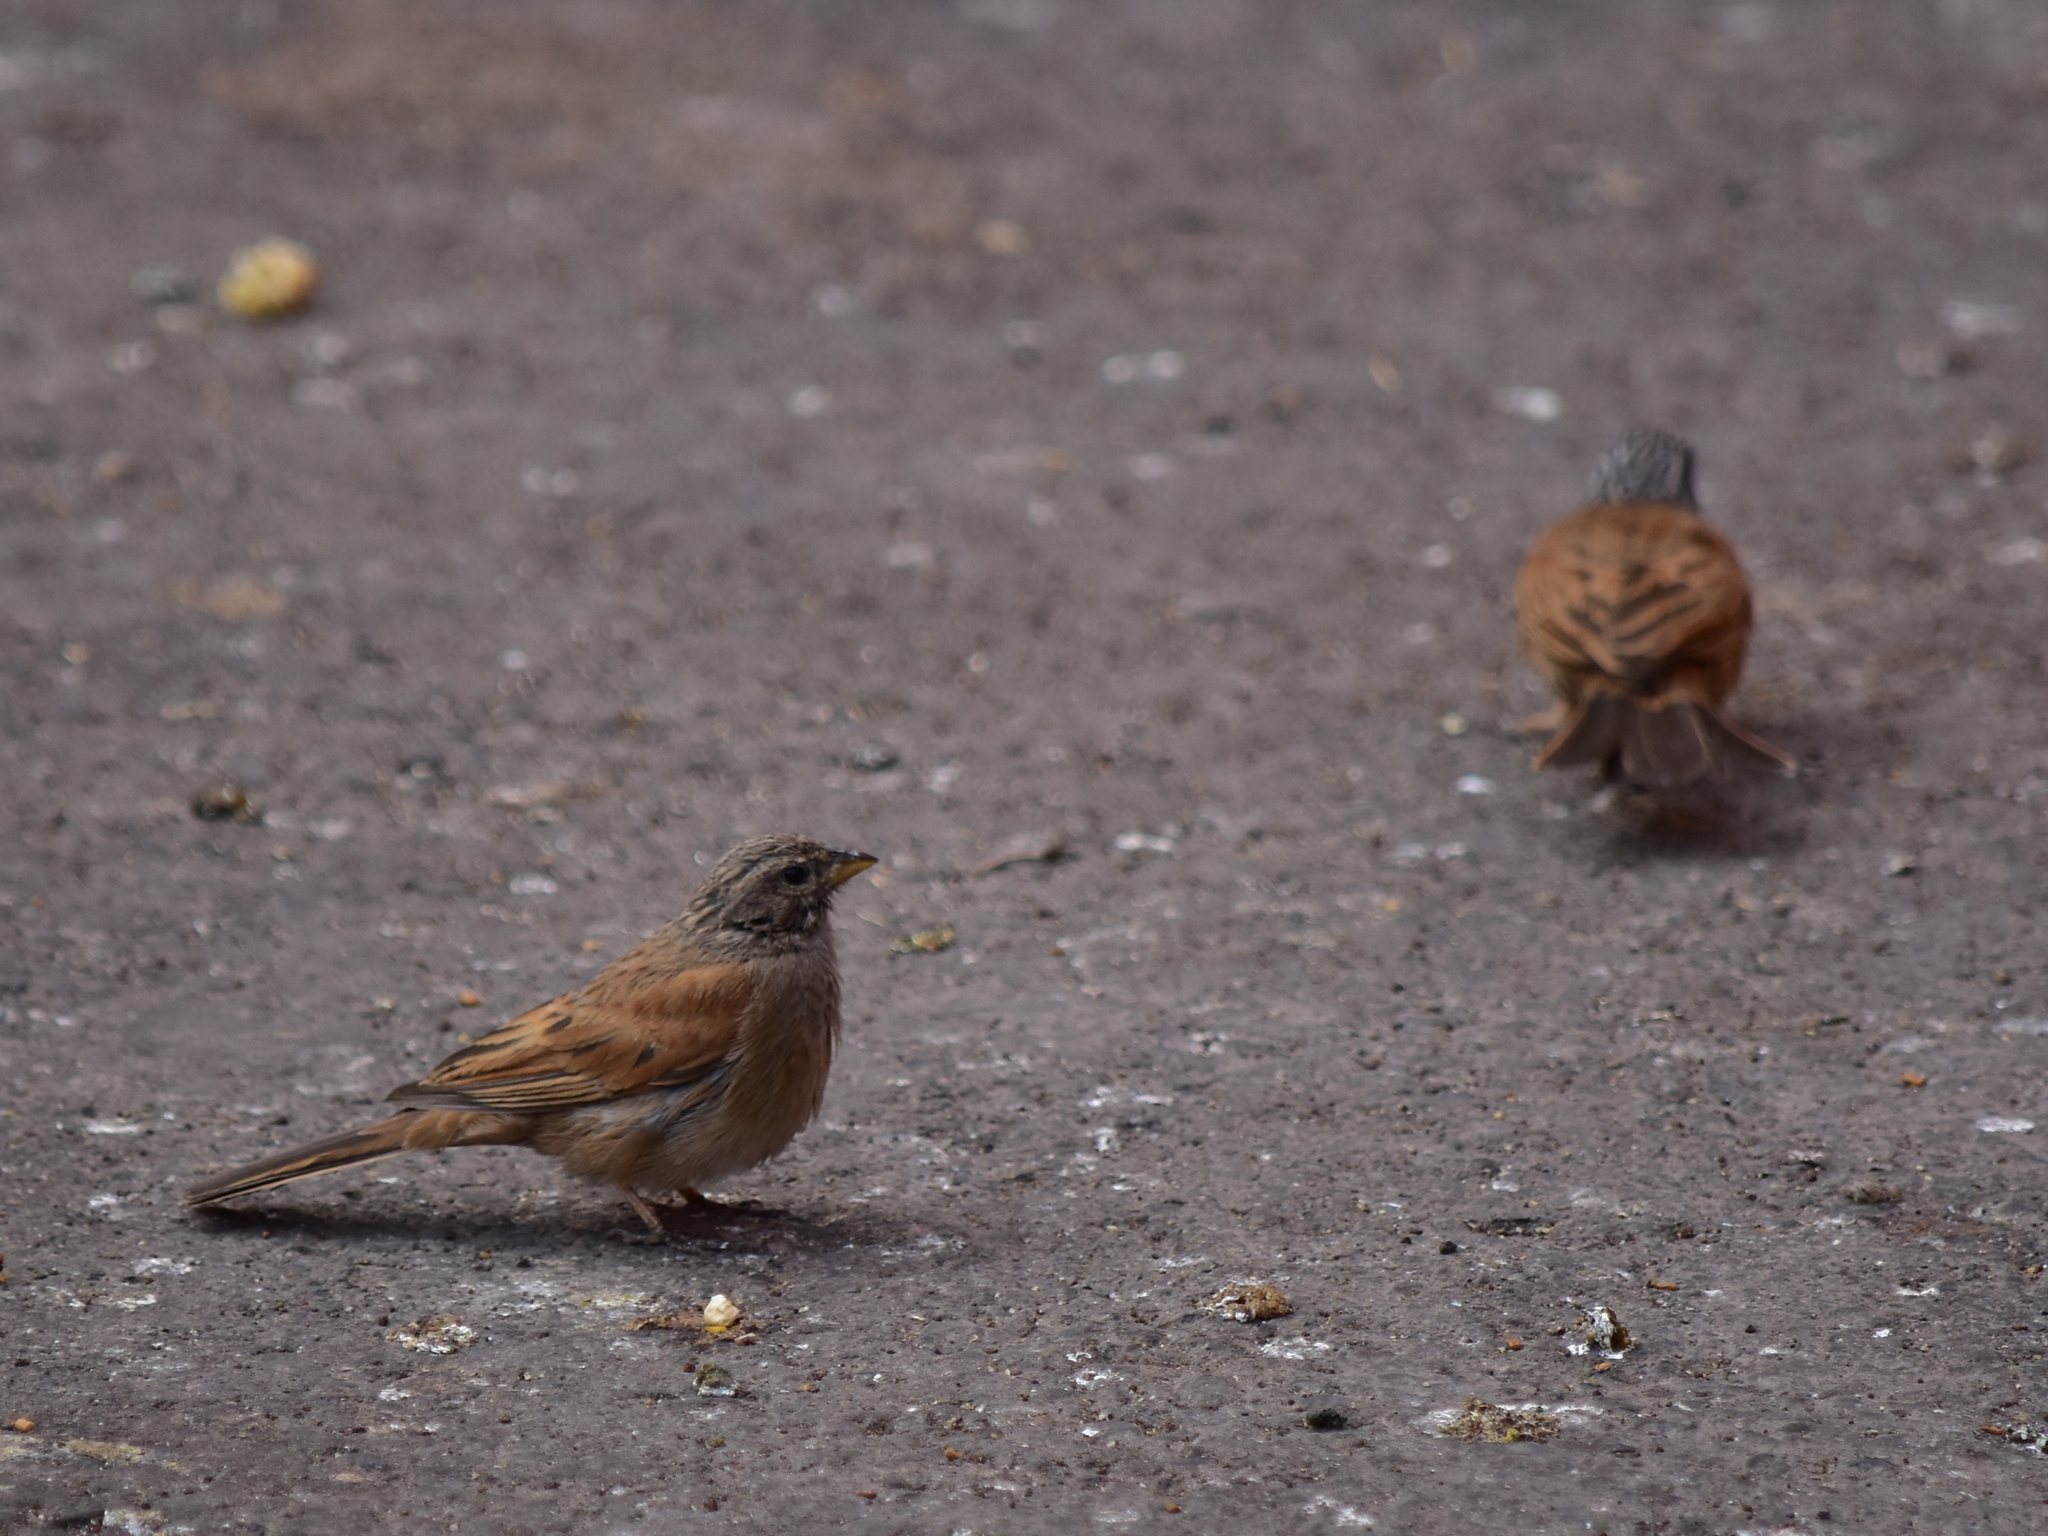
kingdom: Animalia
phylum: Chordata
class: Aves
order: Passeriformes
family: Emberizidae
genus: Emberiza
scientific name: Emberiza sahari
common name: House bunting
